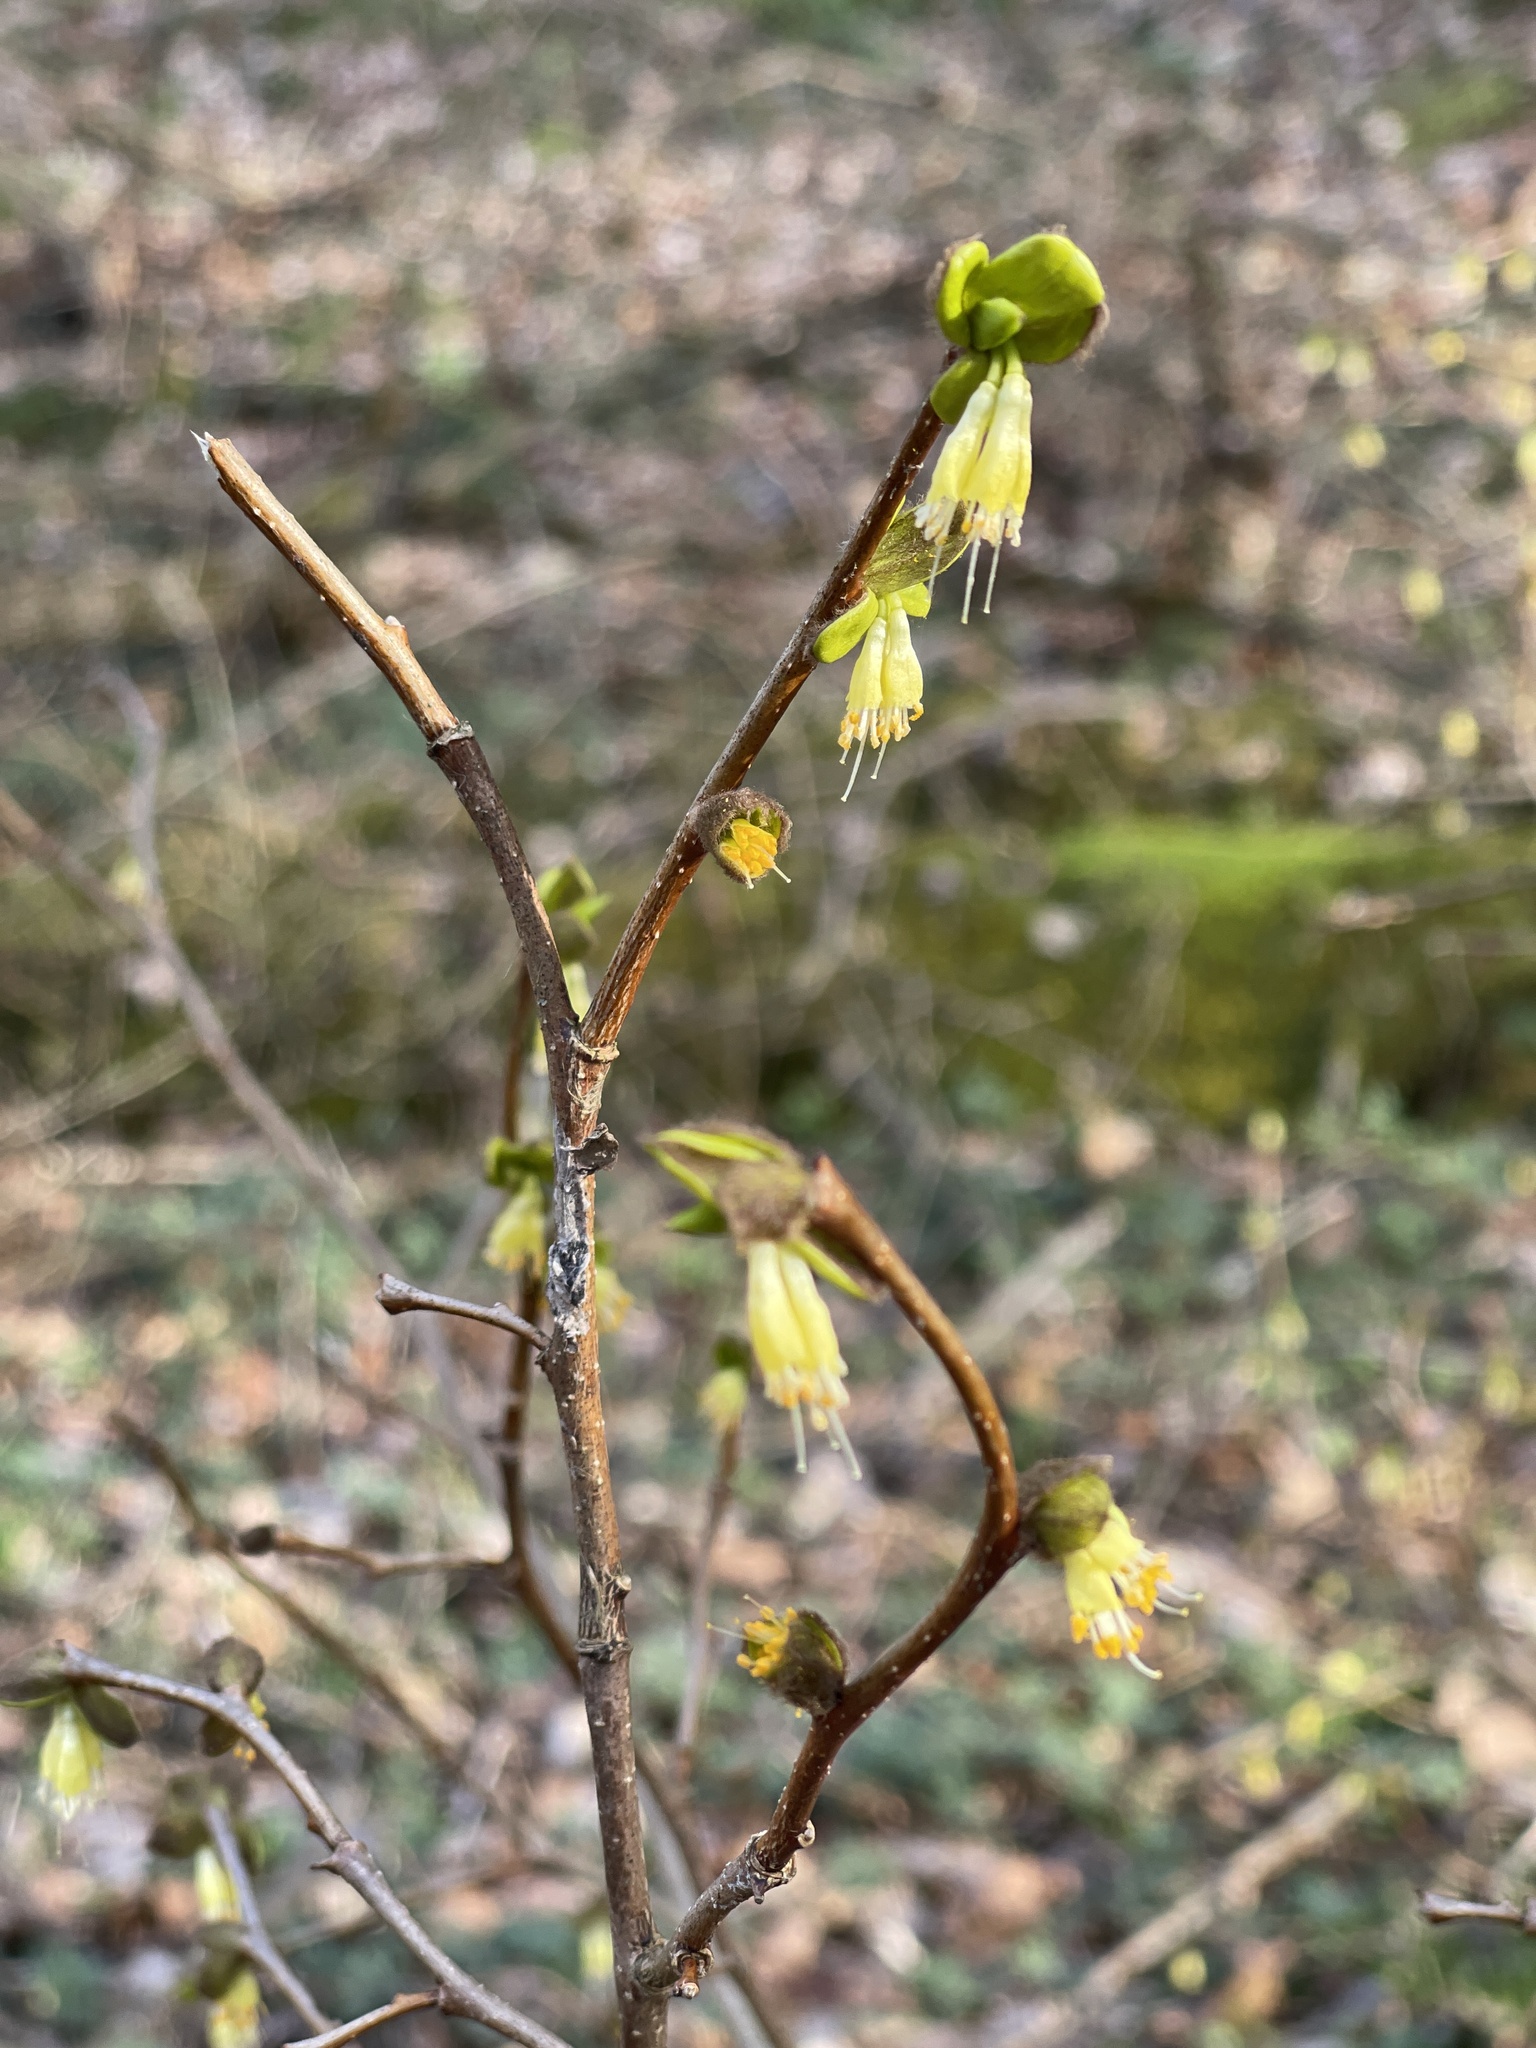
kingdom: Plantae
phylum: Tracheophyta
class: Magnoliopsida
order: Malvales
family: Thymelaeaceae
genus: Dirca
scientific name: Dirca palustris
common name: Leatherwood
